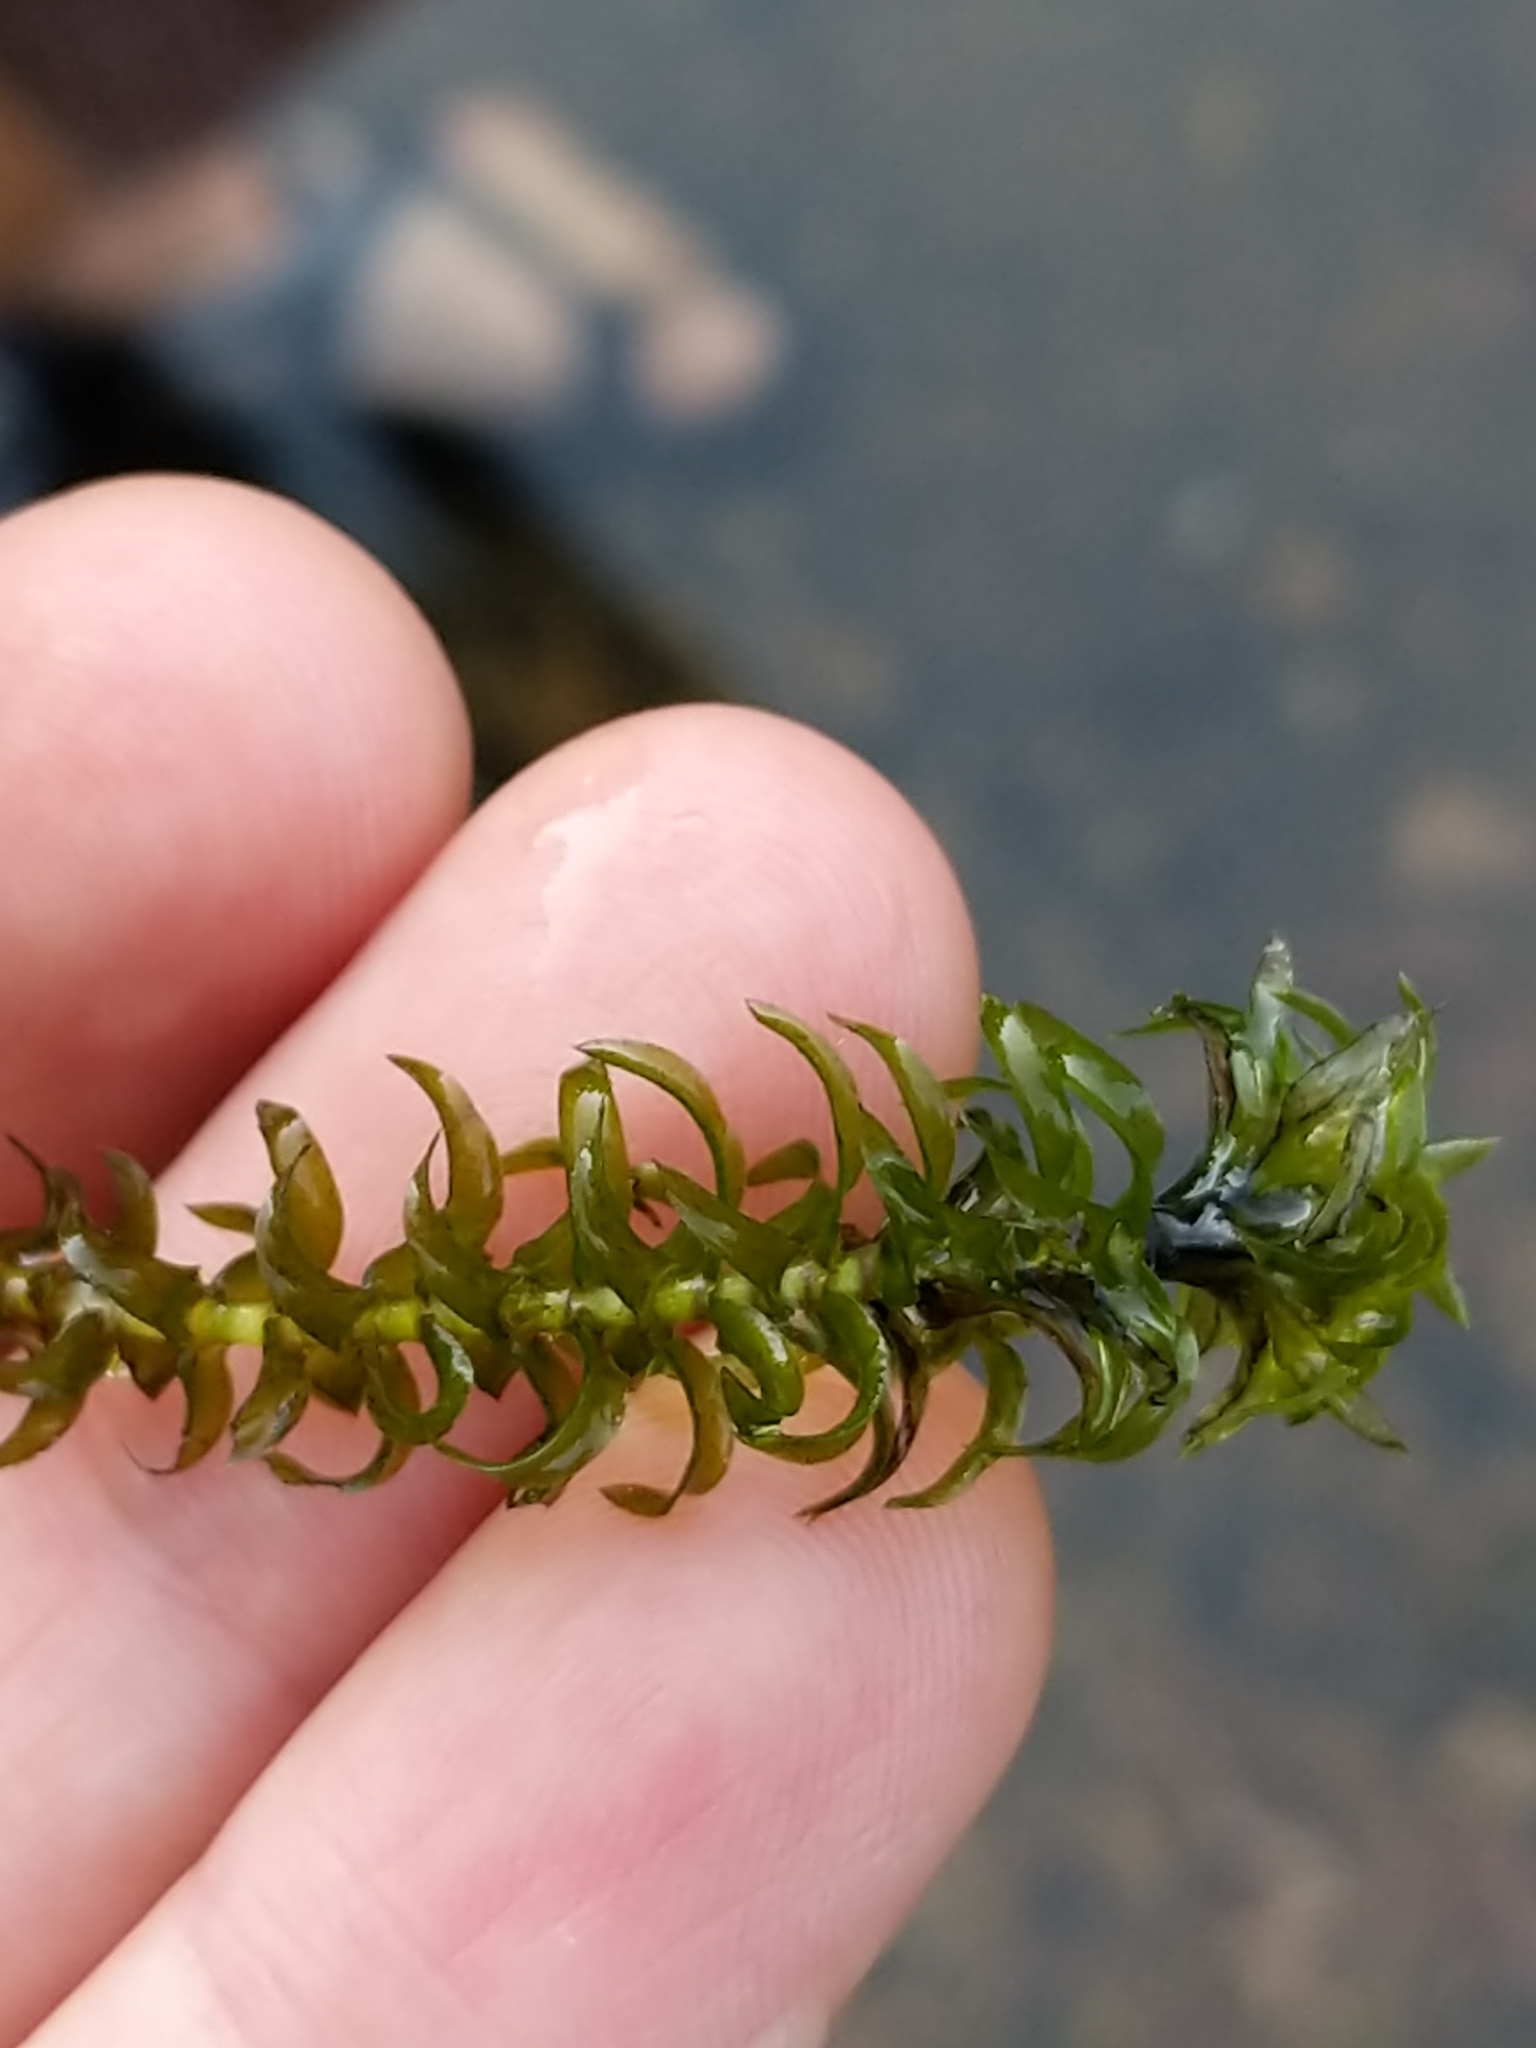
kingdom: Plantae
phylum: Tracheophyta
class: Liliopsida
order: Alismatales
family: Hydrocharitaceae
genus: Elodea
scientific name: Elodea canadensis
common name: Canadian waterweed
